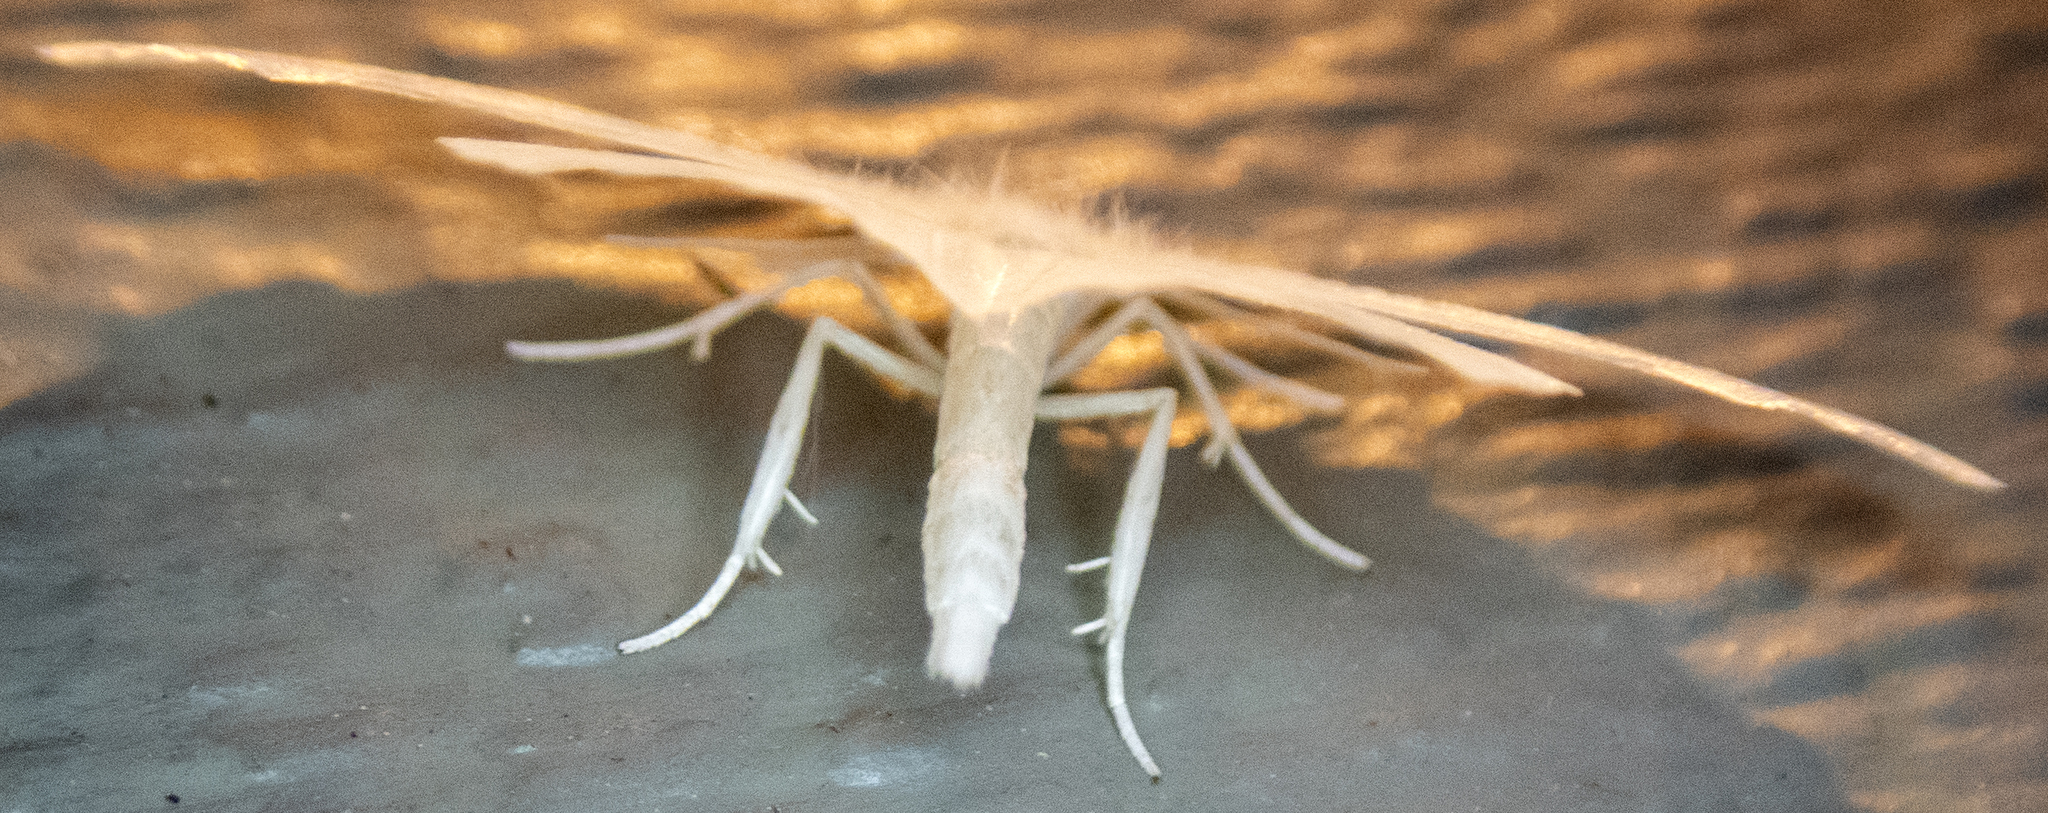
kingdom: Animalia
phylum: Arthropoda
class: Insecta
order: Lepidoptera
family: Geometridae
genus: Eugonobapta
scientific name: Eugonobapta nivosaria
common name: Snowy geometer
